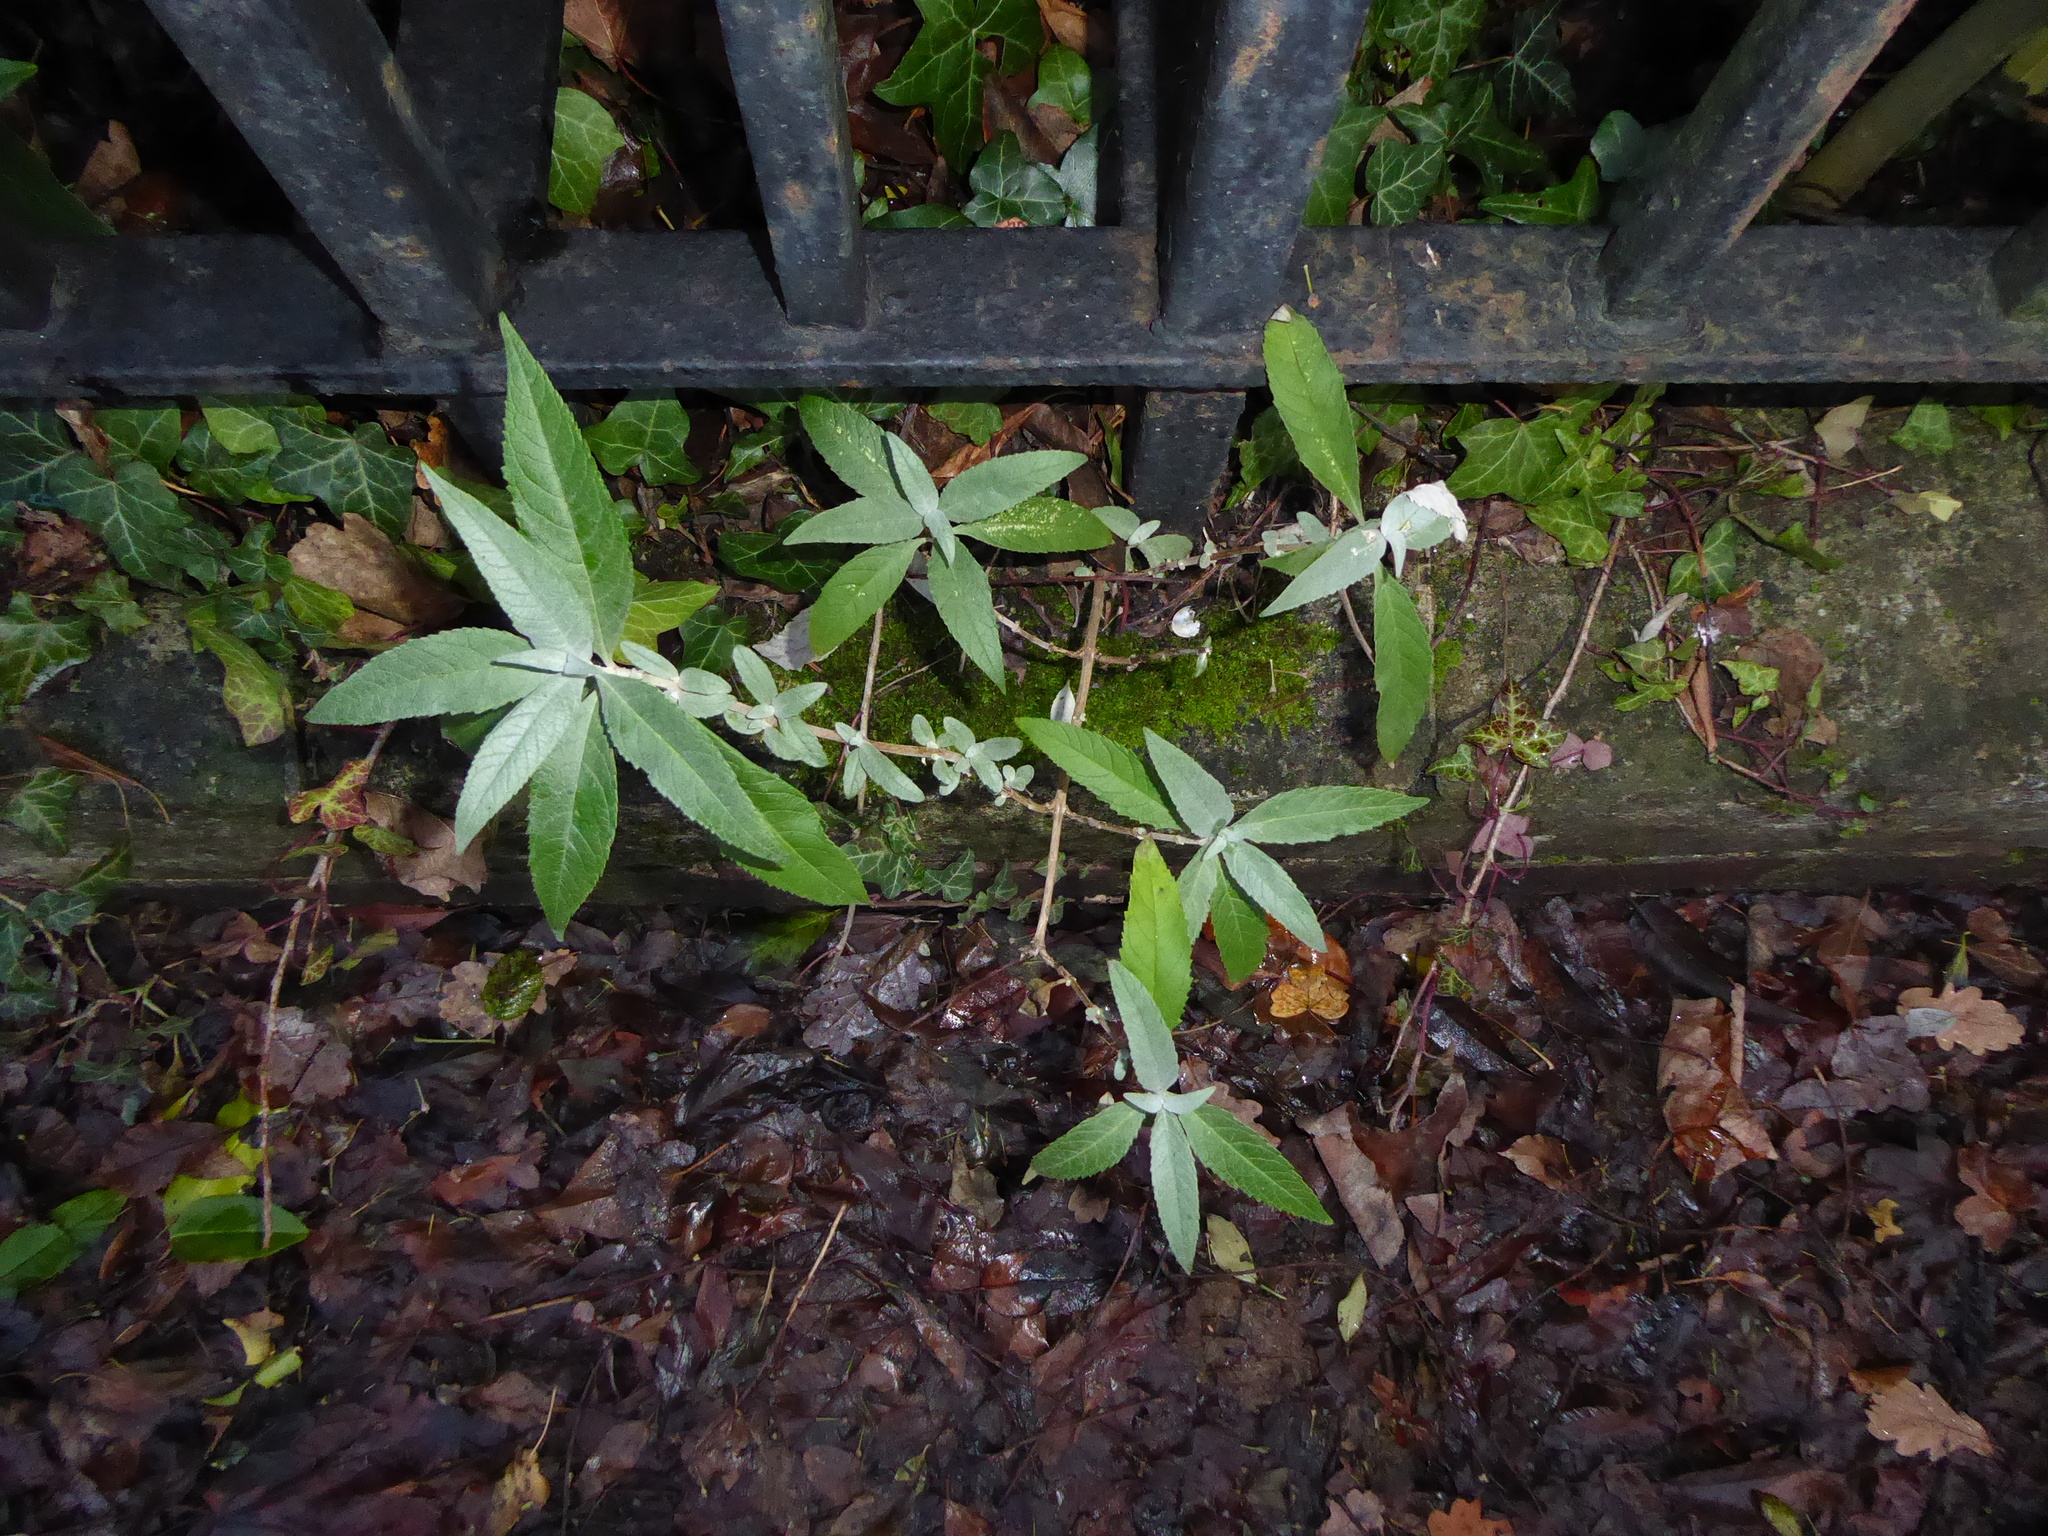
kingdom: Plantae
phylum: Tracheophyta
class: Magnoliopsida
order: Lamiales
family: Scrophulariaceae
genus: Buddleja
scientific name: Buddleja davidii
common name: Butterfly-bush
